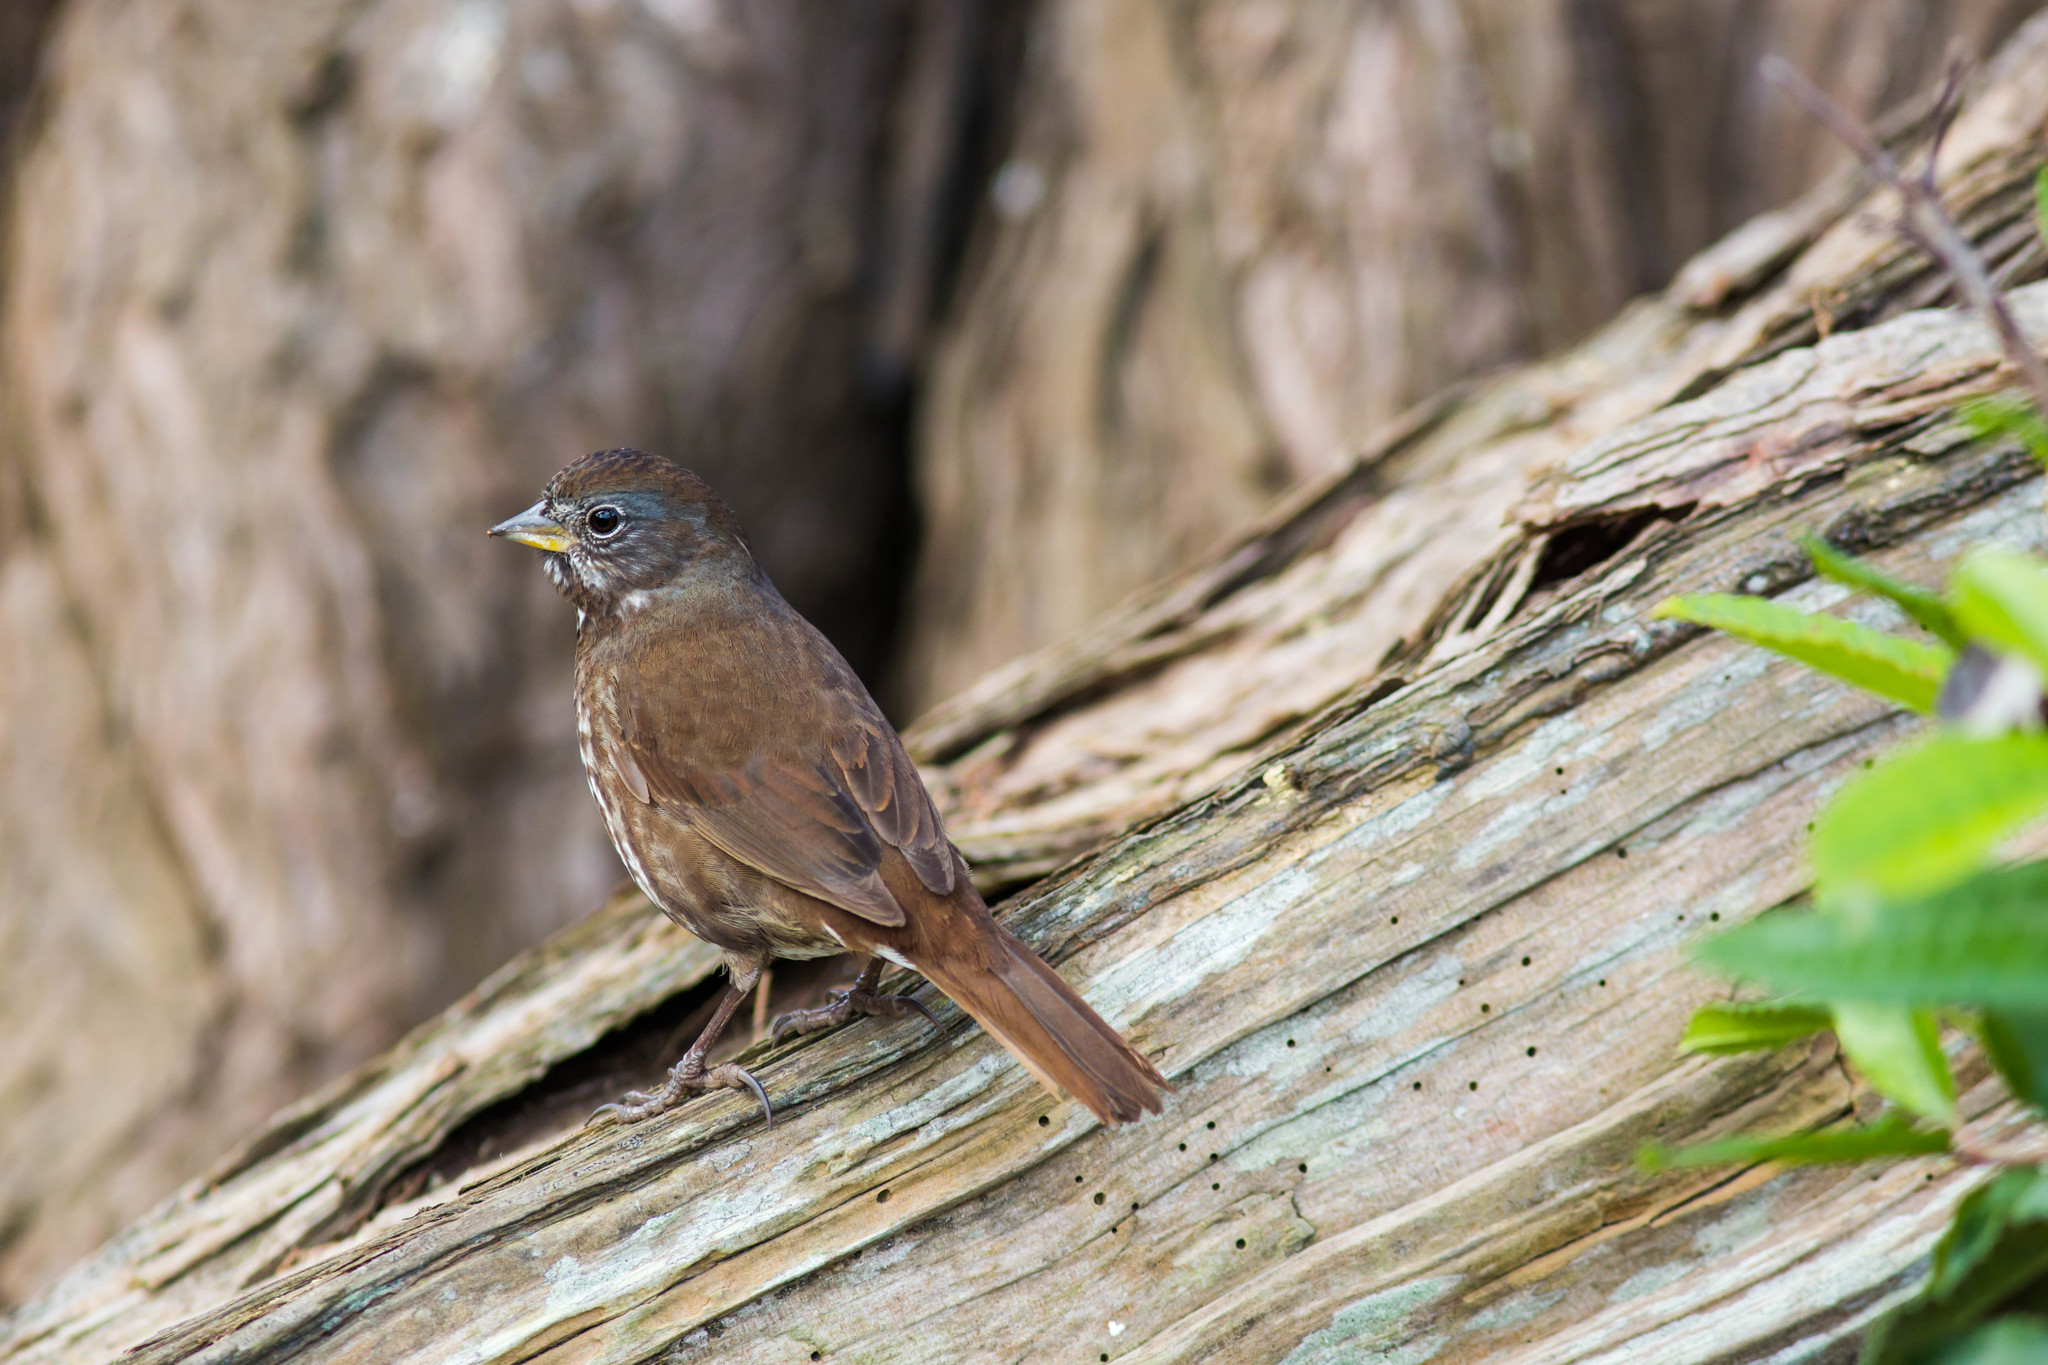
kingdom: Animalia
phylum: Chordata
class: Aves
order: Passeriformes
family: Passerellidae
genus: Passerella
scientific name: Passerella iliaca
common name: Fox sparrow
